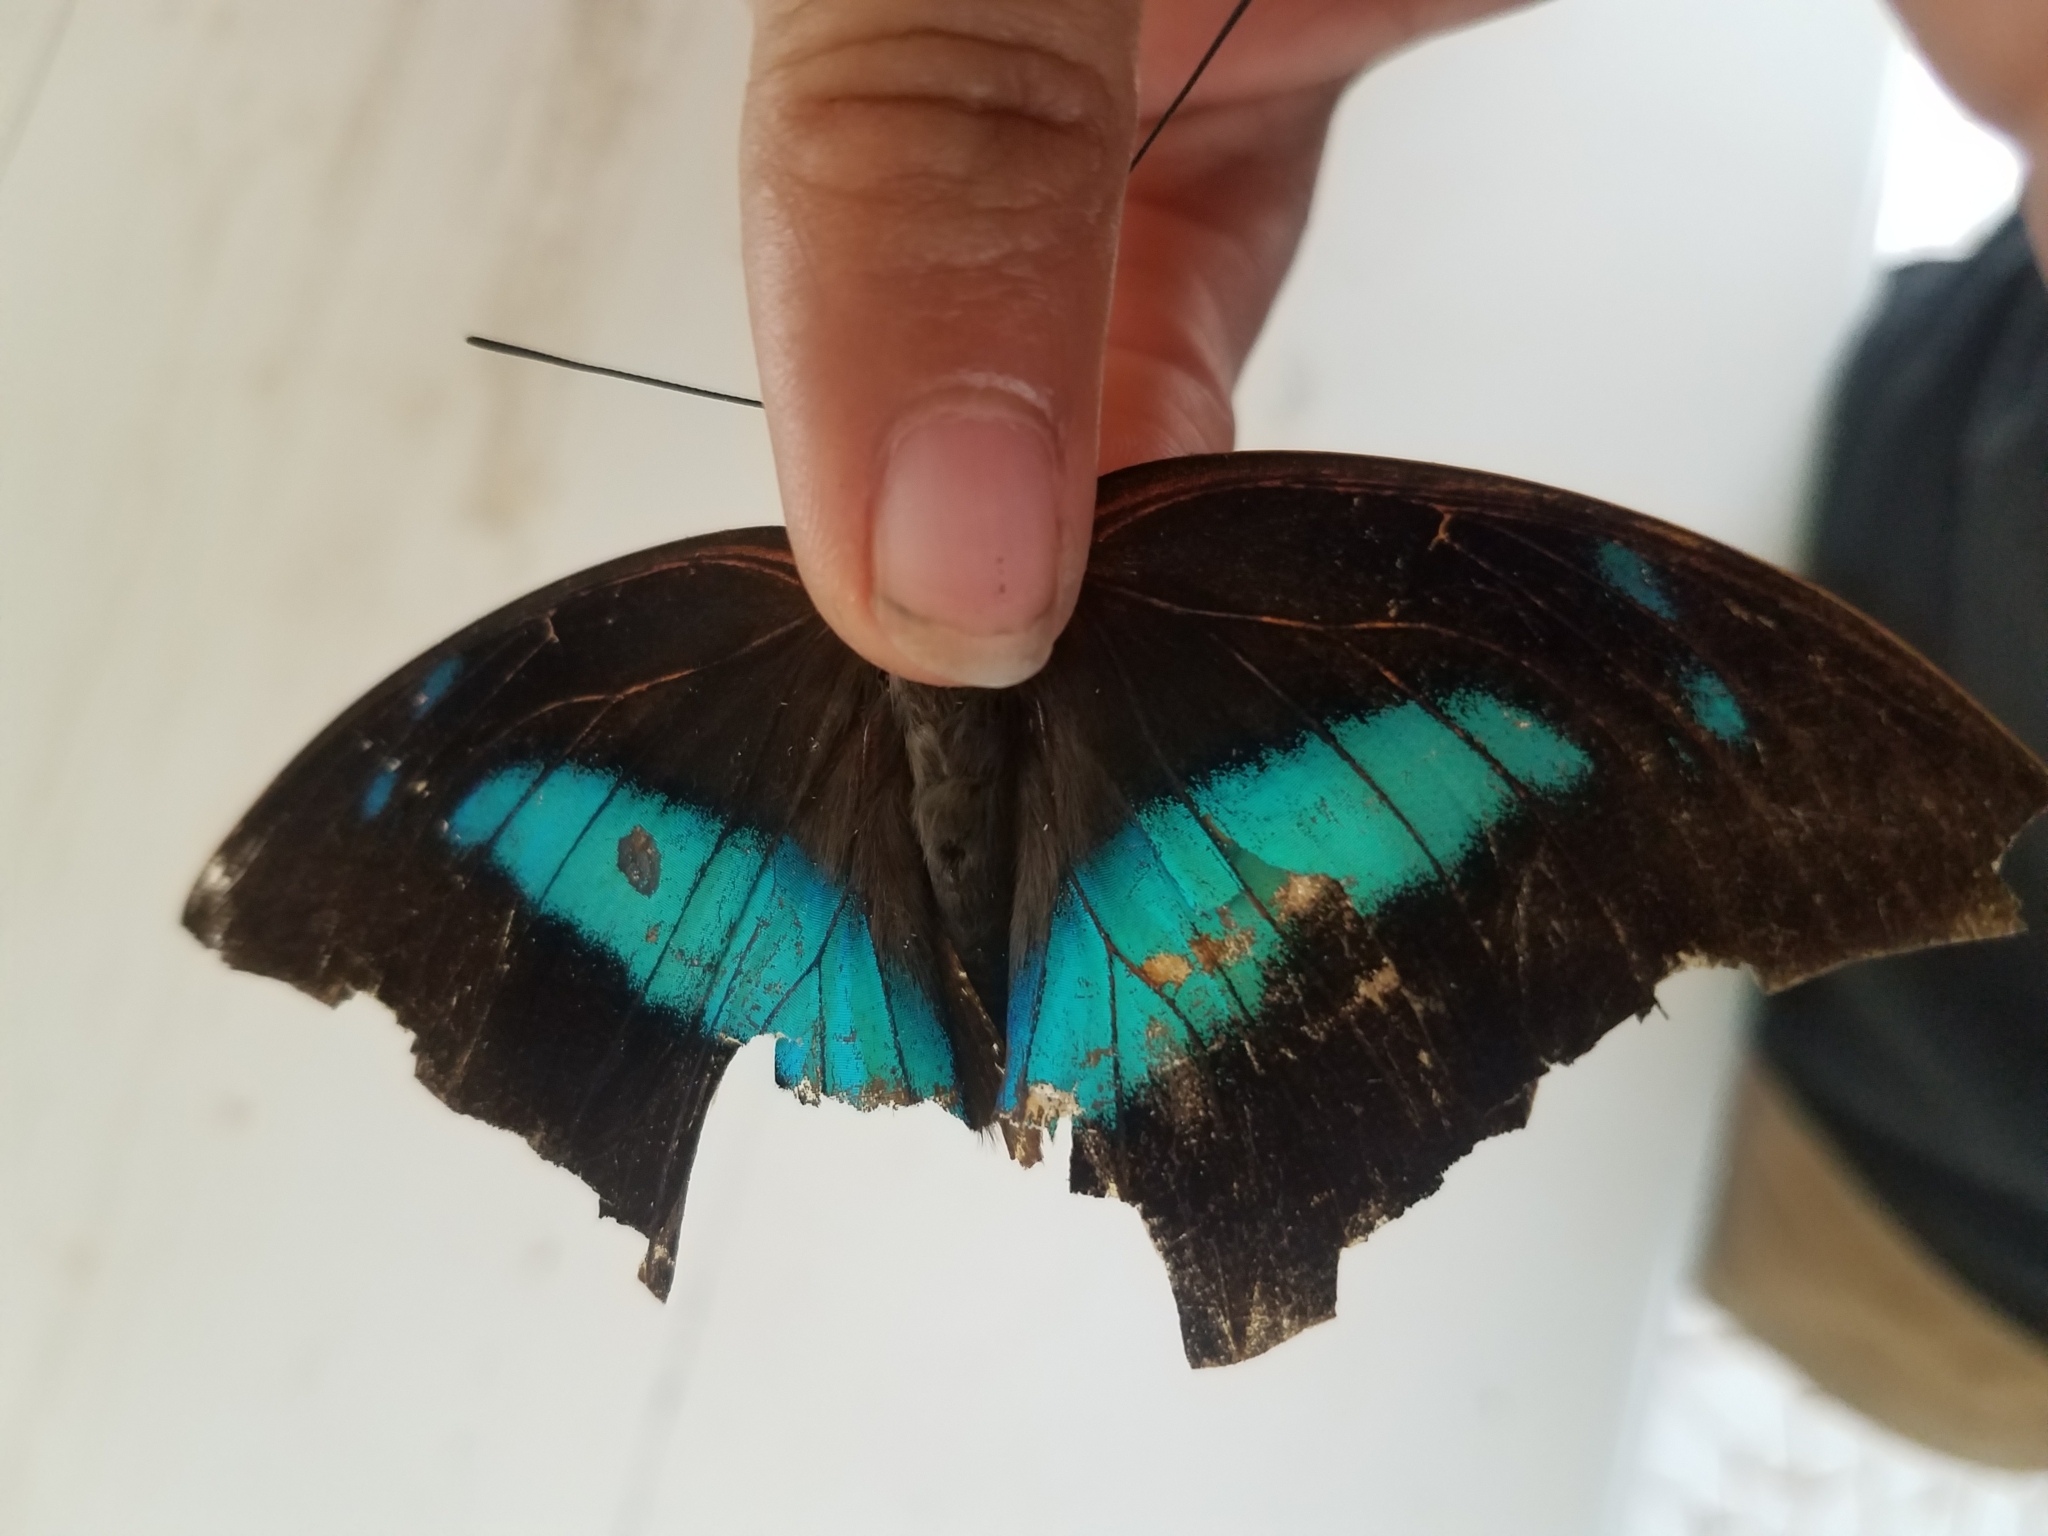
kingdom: Animalia
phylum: Arthropoda
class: Insecta
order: Lepidoptera
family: Nymphalidae
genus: Prepona
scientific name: Prepona Archaeoprepona demophon
